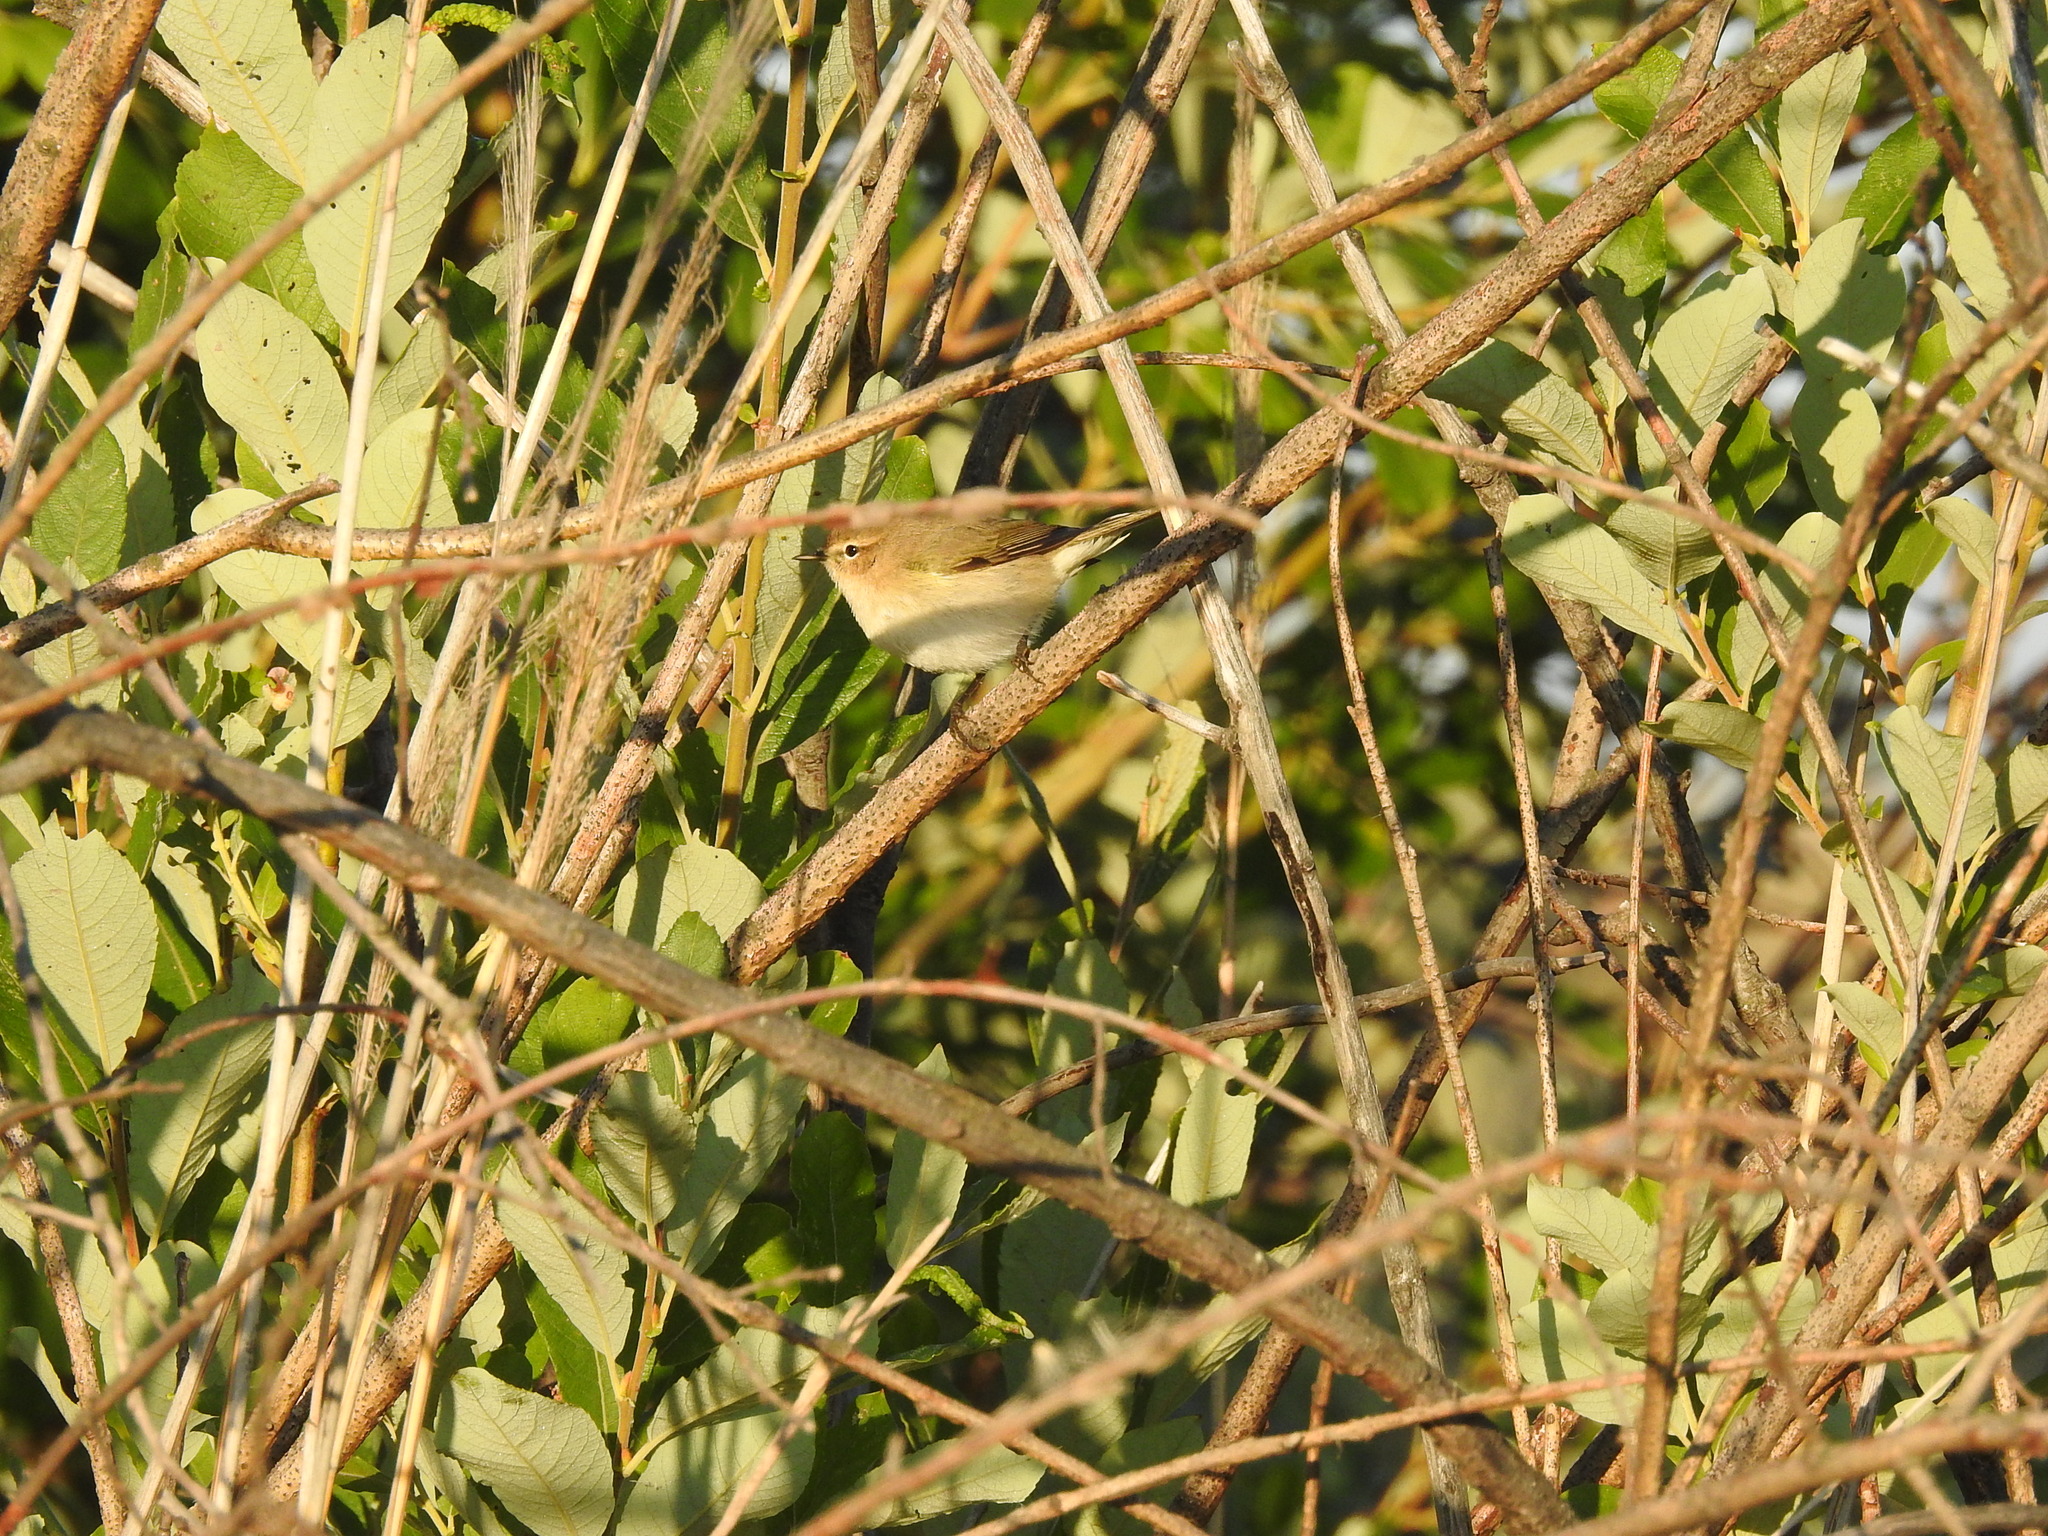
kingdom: Animalia
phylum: Chordata
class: Aves
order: Passeriformes
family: Phylloscopidae
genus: Phylloscopus
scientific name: Phylloscopus collybita
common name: Common chiffchaff
